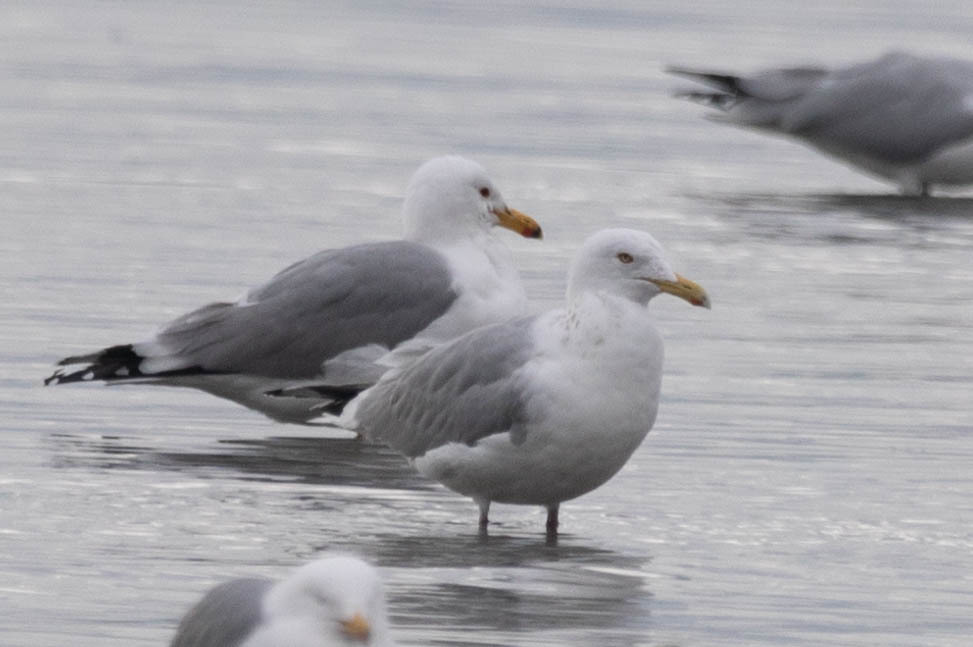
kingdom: Animalia
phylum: Chordata
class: Aves
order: Charadriiformes
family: Laridae
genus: Larus
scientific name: Larus argentatus
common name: Herring gull
